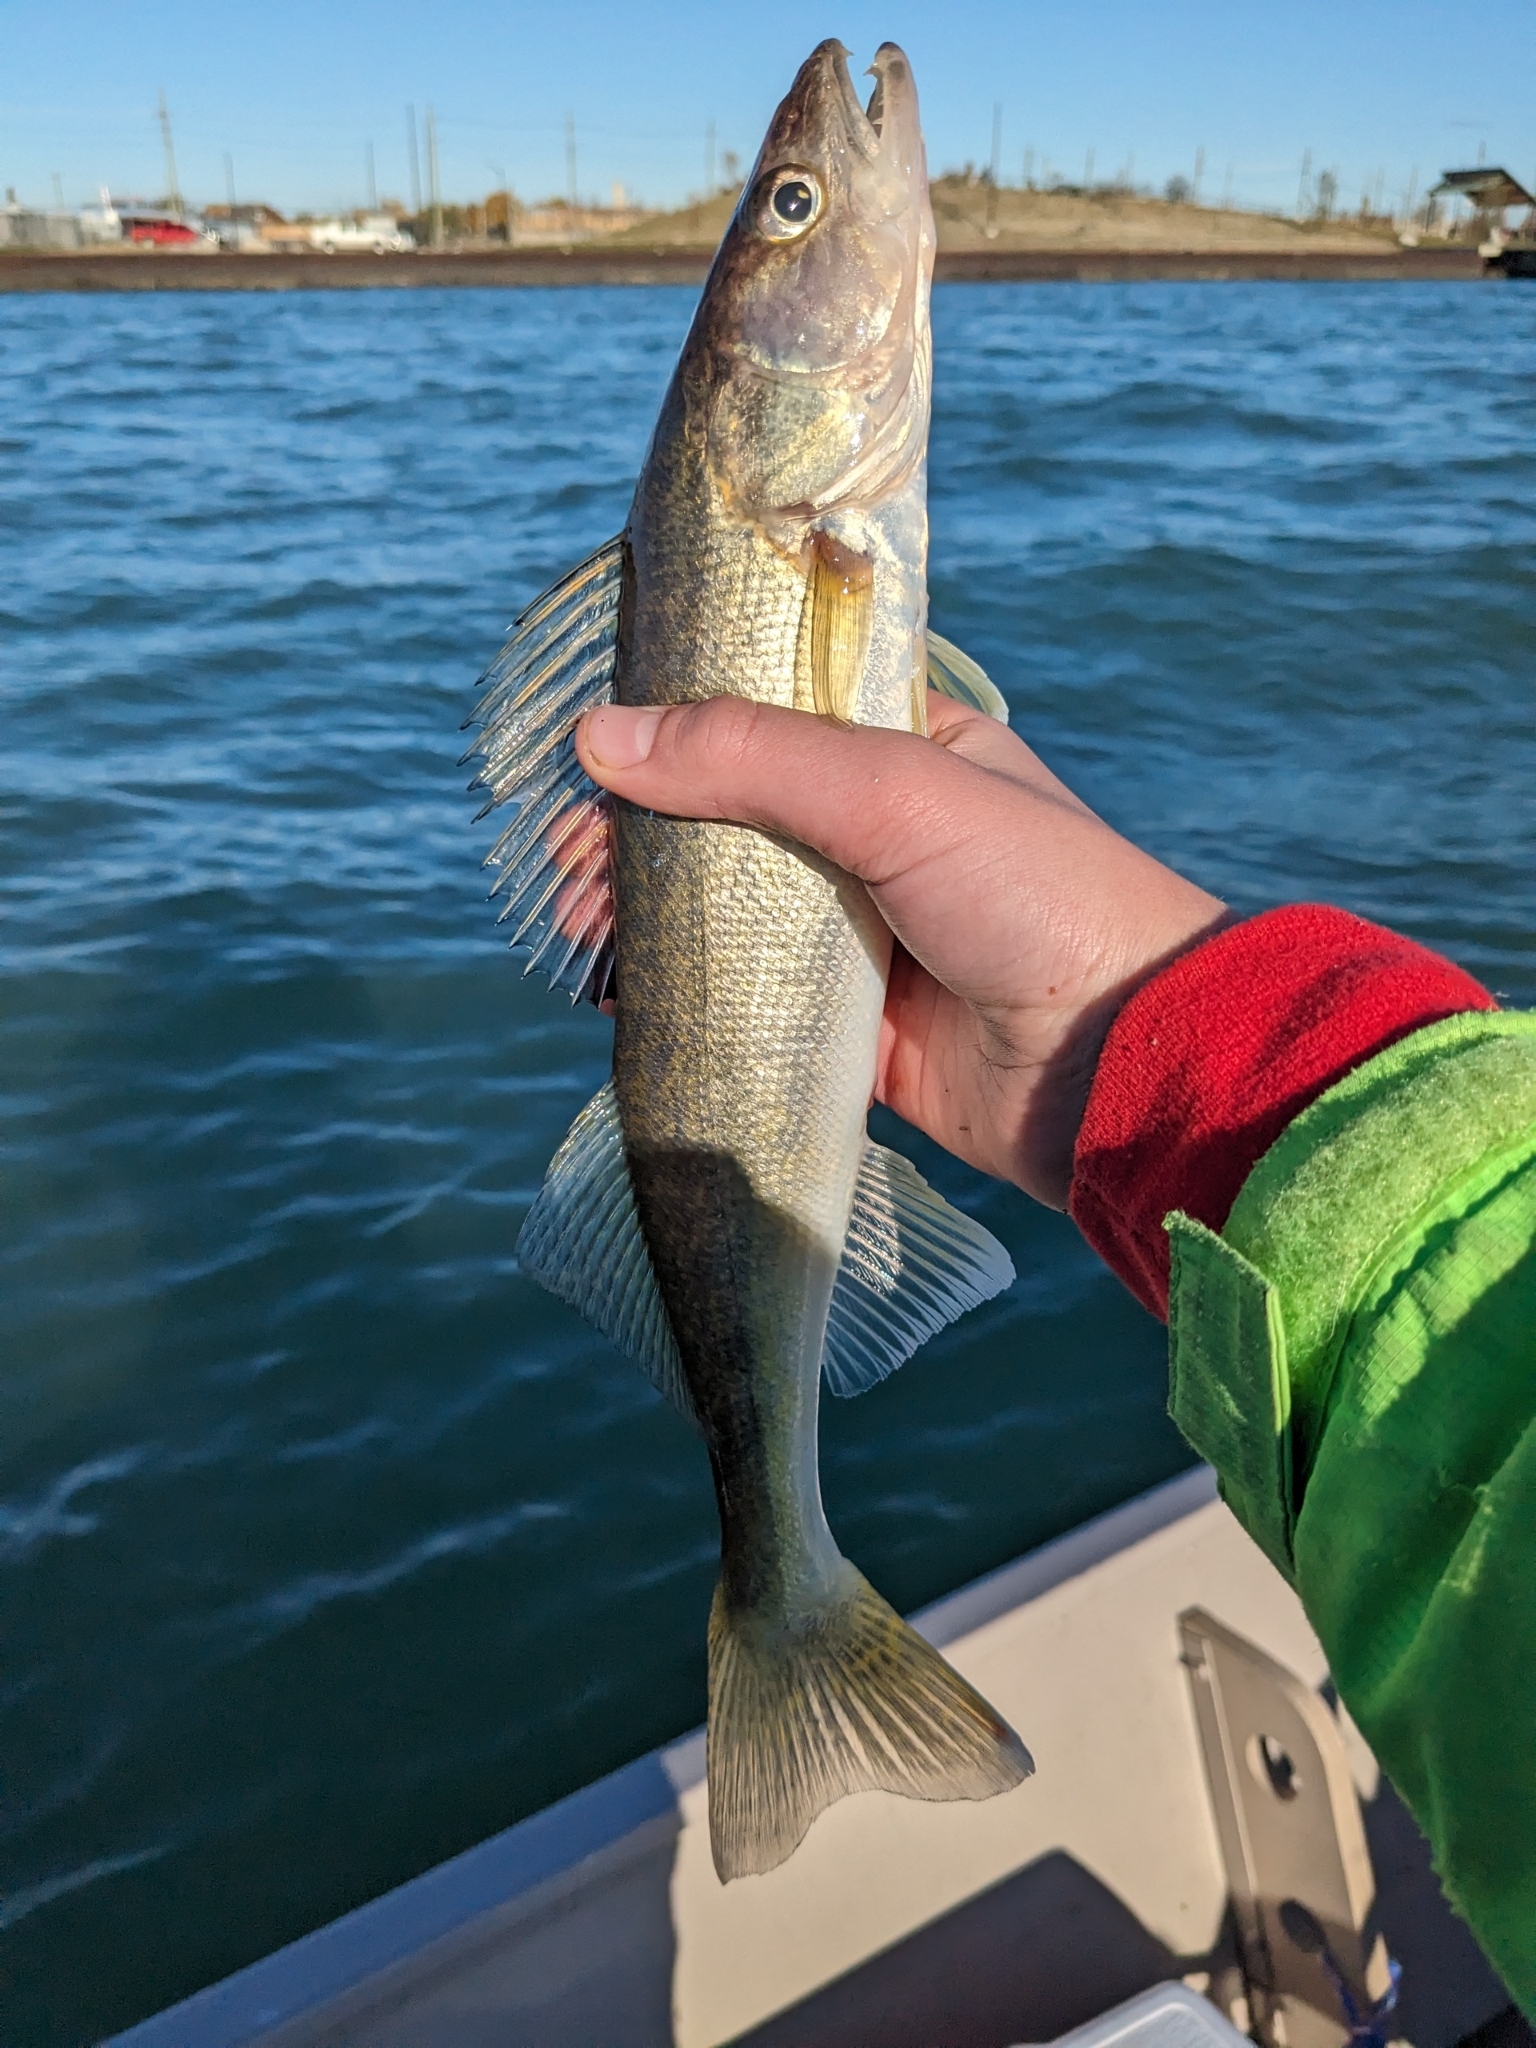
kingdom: Animalia
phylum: Chordata
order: Perciformes
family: Percidae
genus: Sander
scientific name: Sander vitreus
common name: Walleye
